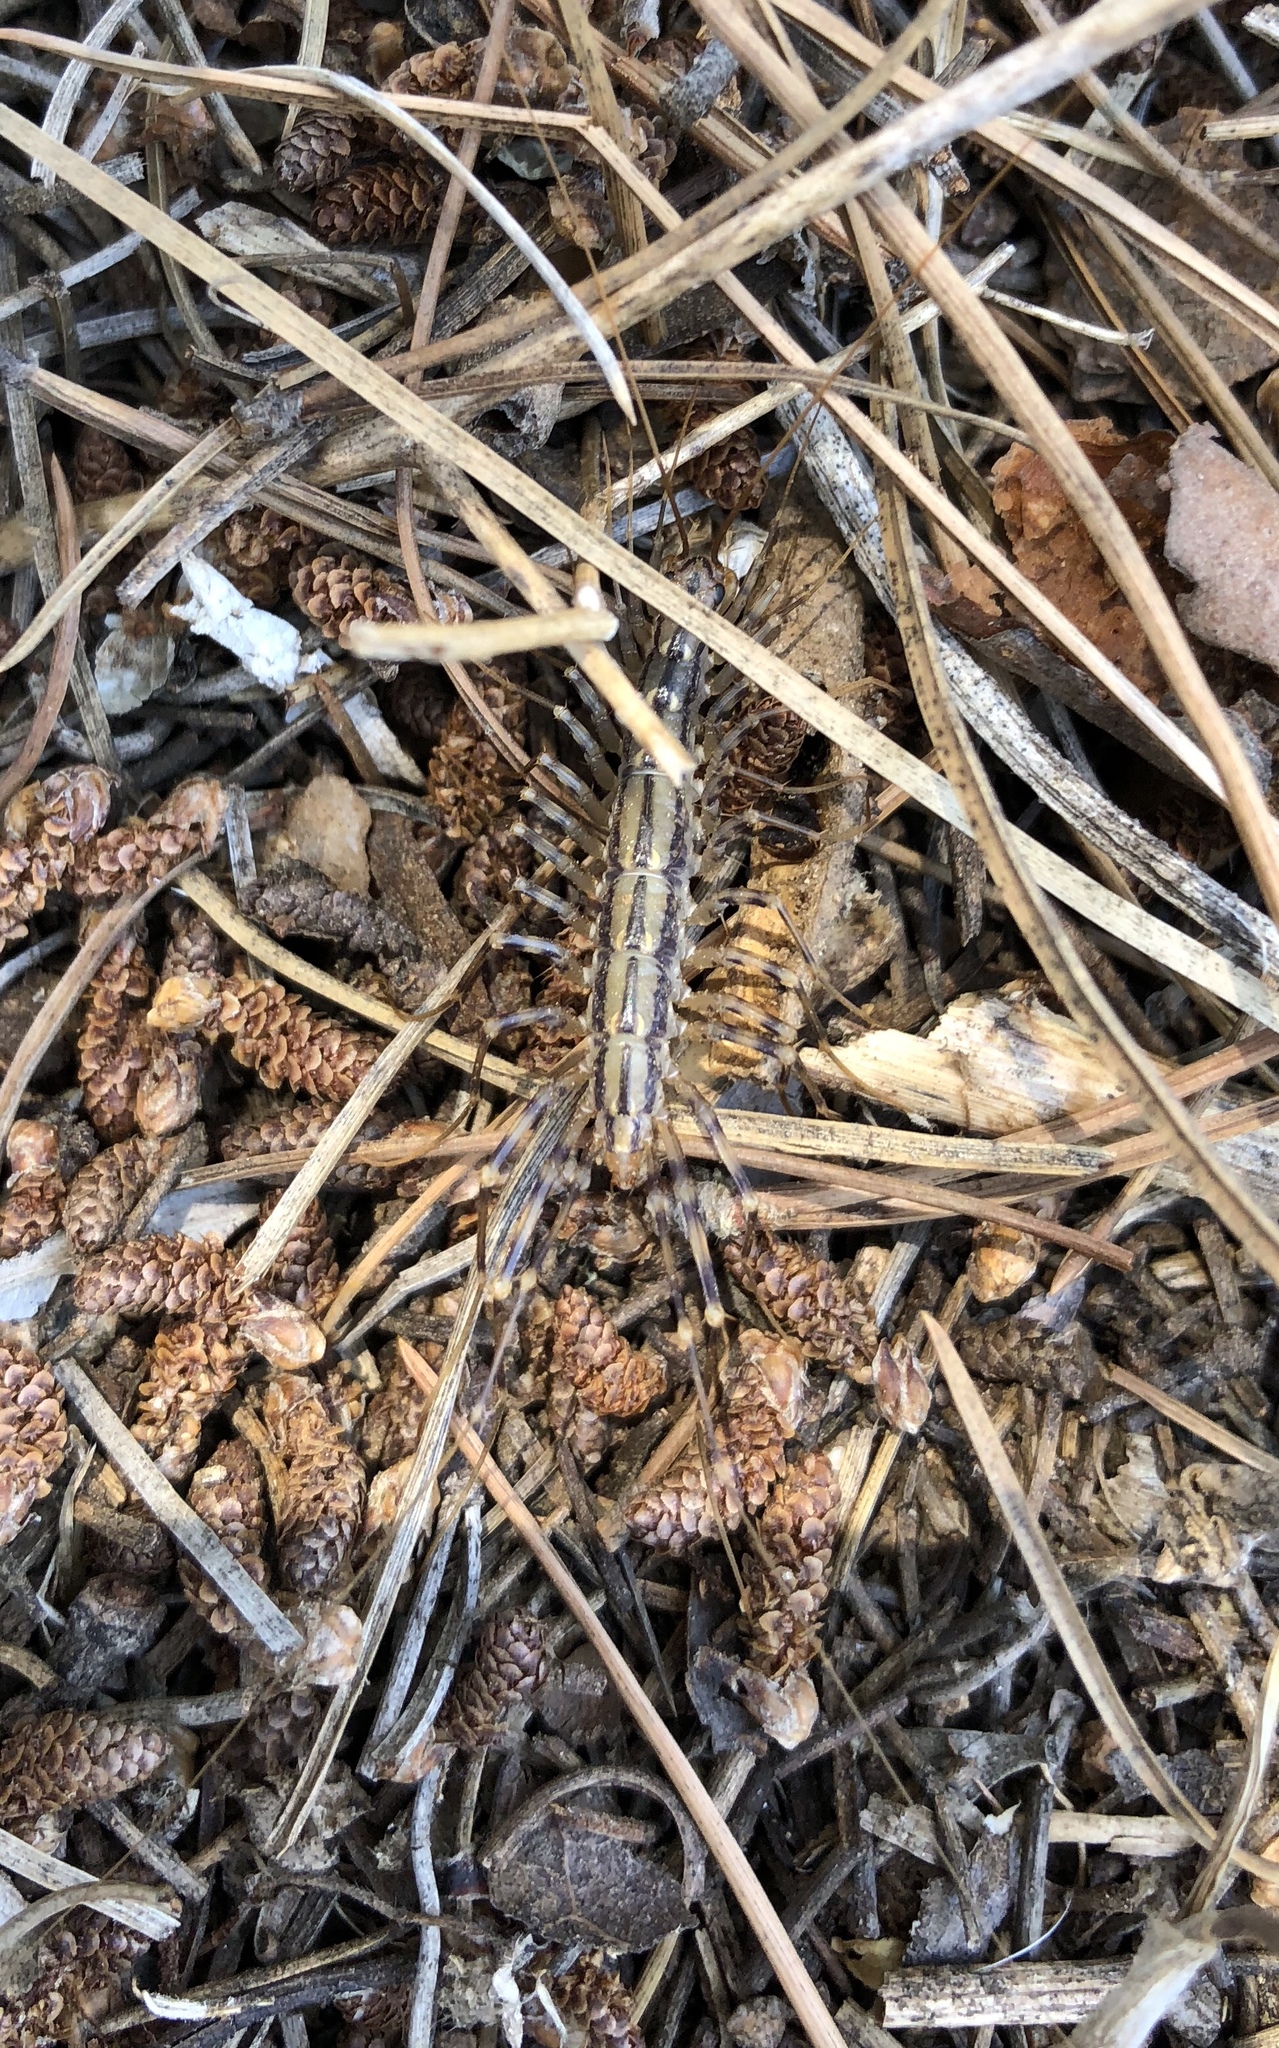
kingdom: Animalia
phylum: Arthropoda
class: Chilopoda
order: Scutigeromorpha
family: Scutigeridae
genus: Scutigera
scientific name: Scutigera coleoptrata
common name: House centipede
